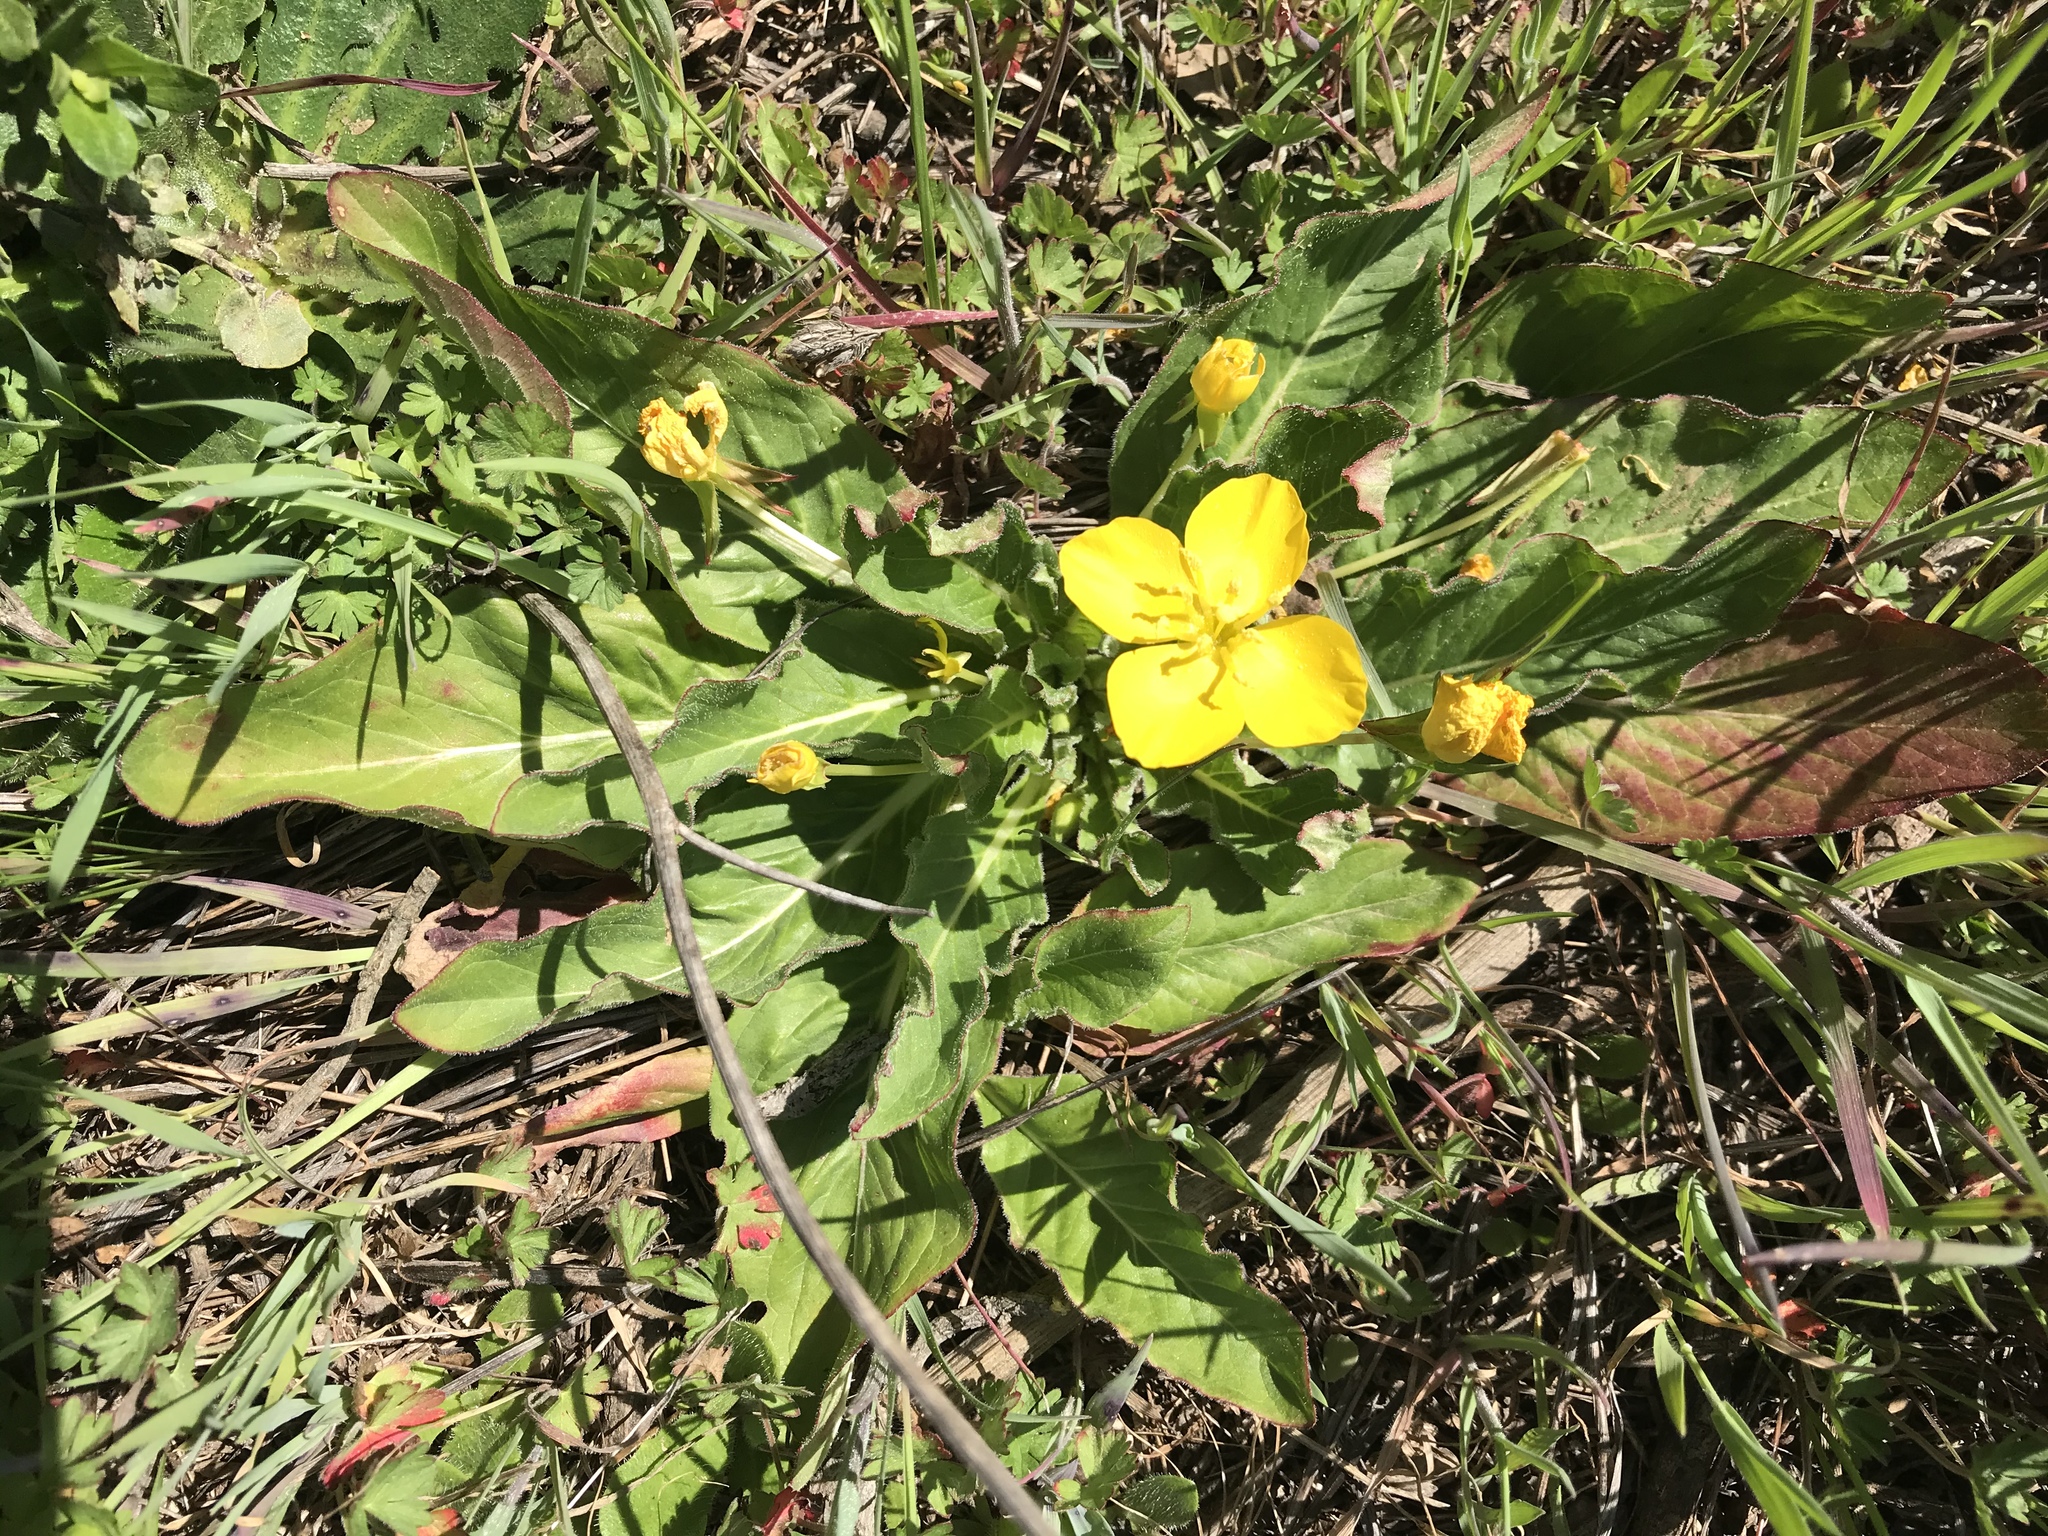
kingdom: Plantae
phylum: Tracheophyta
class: Magnoliopsida
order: Myrtales
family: Onagraceae
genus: Taraxia
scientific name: Taraxia ovata
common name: Goldeneggs
